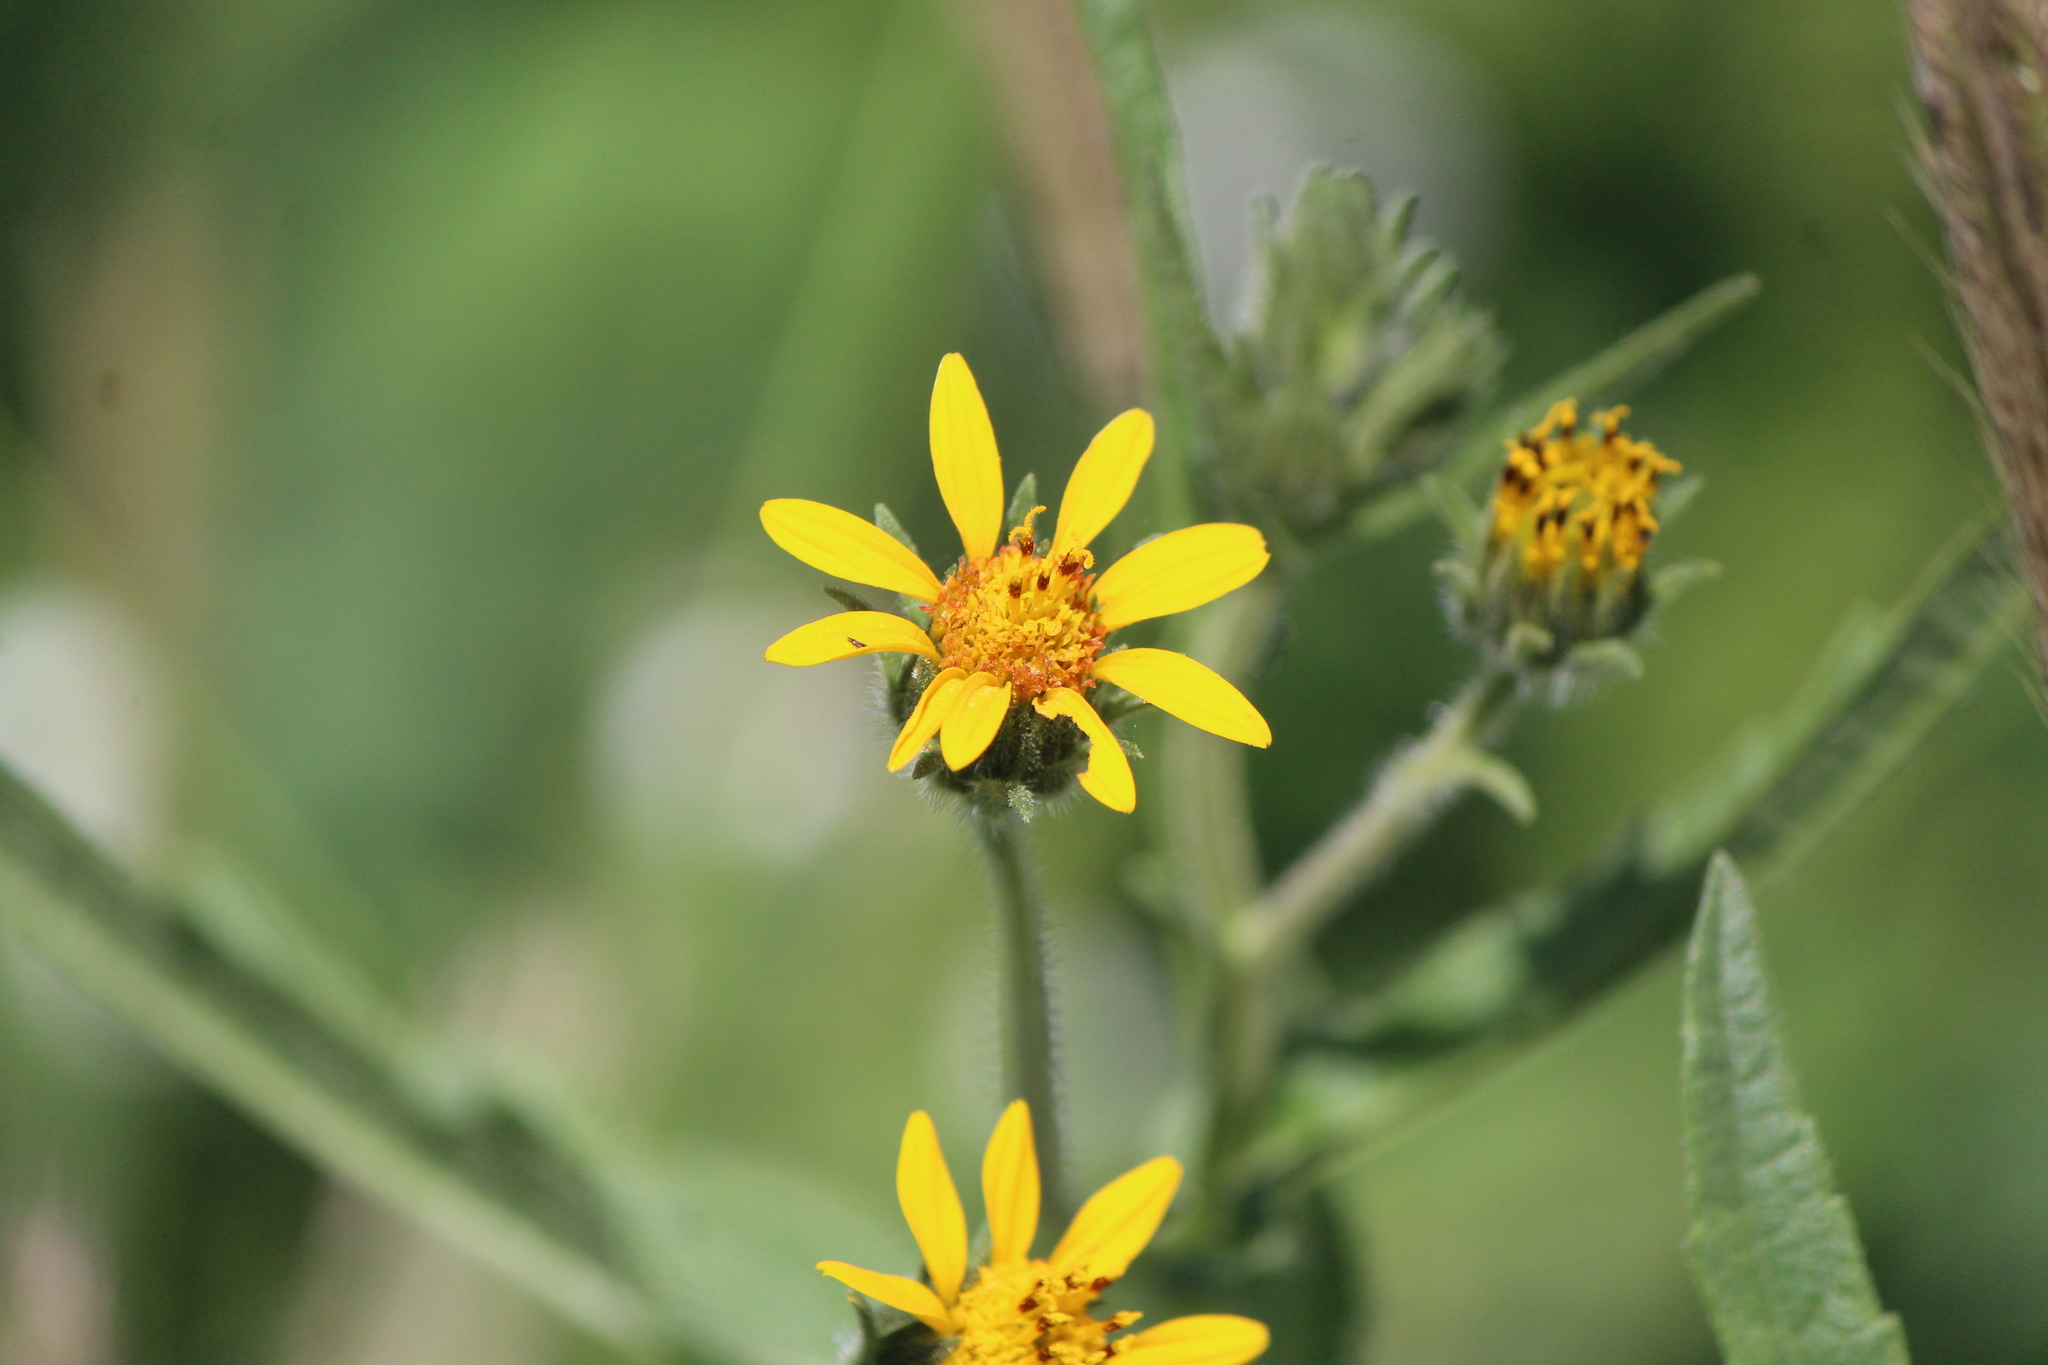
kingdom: Plantae
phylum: Tracheophyta
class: Magnoliopsida
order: Asterales
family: Asteraceae
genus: Simsia
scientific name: Simsia amplexicaulis
